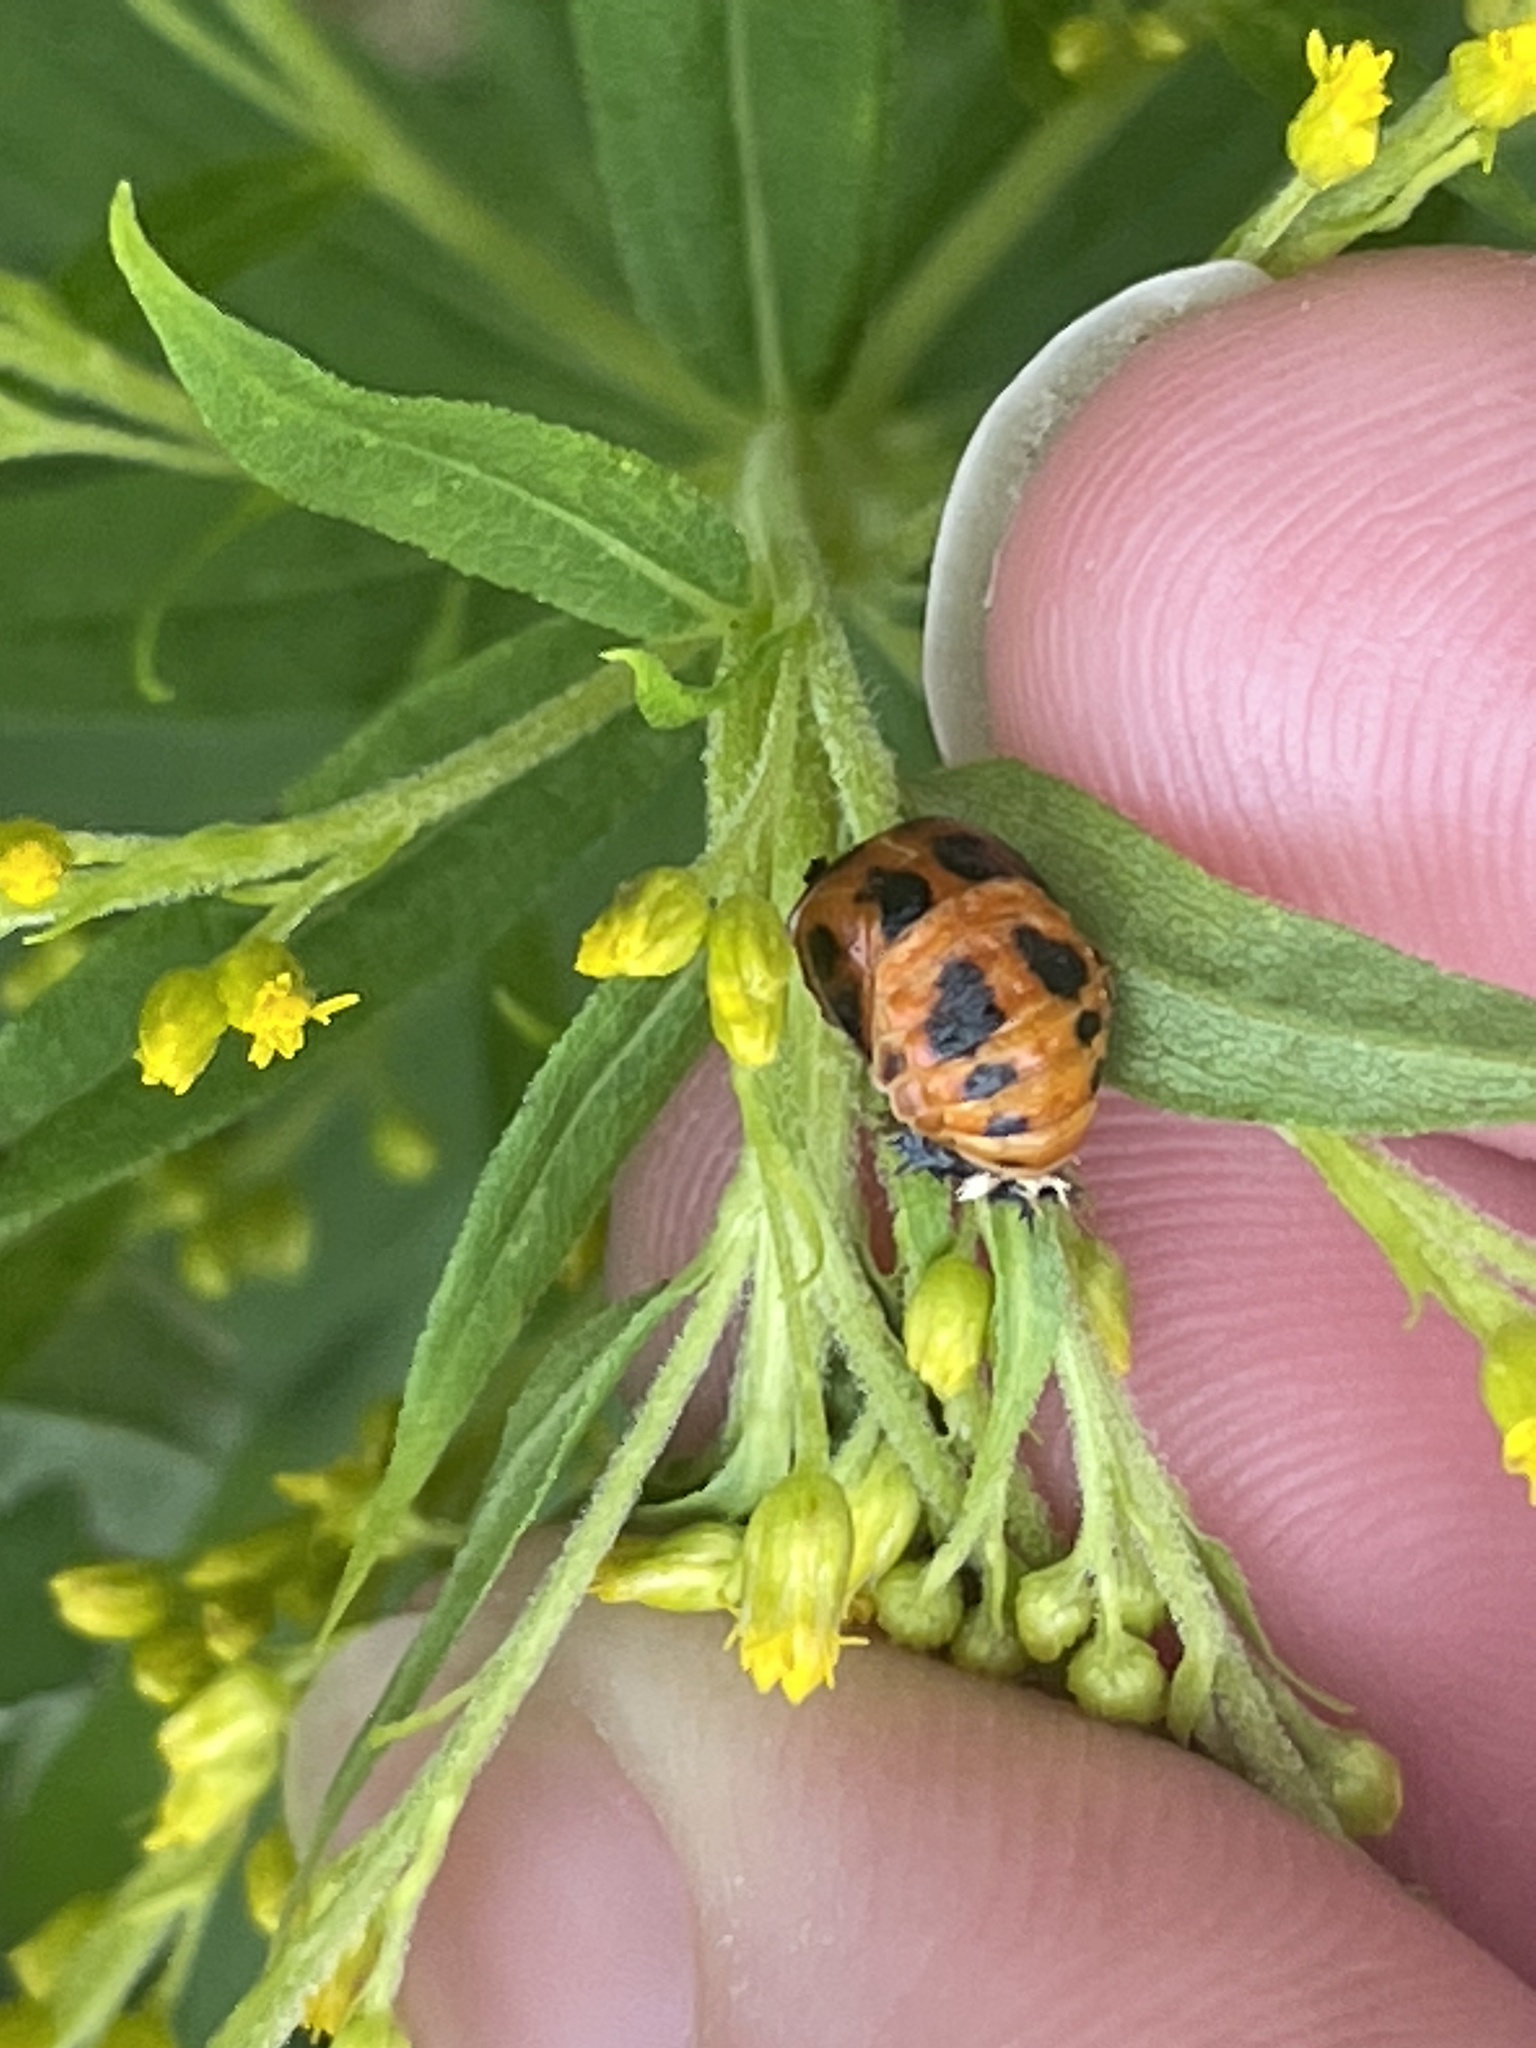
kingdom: Animalia
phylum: Arthropoda
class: Insecta
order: Coleoptera
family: Coccinellidae
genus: Harmonia
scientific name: Harmonia axyridis
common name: Harlequin ladybird
